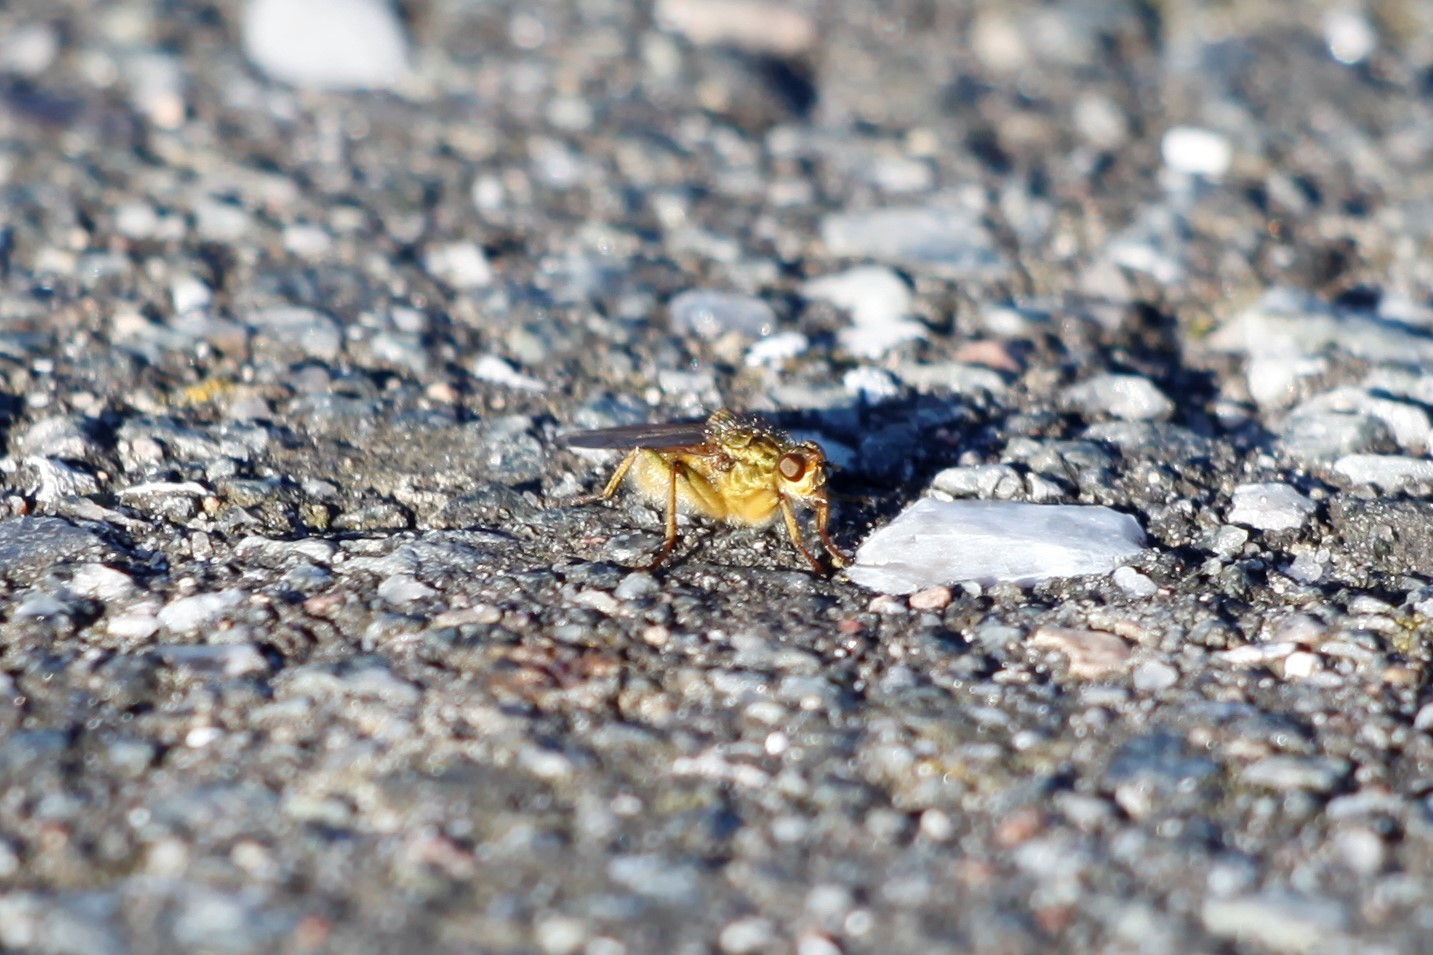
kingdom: Animalia
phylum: Arthropoda
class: Insecta
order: Diptera
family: Scathophagidae
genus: Scathophaga
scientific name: Scathophaga stercoraria
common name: Yellow dung fly
